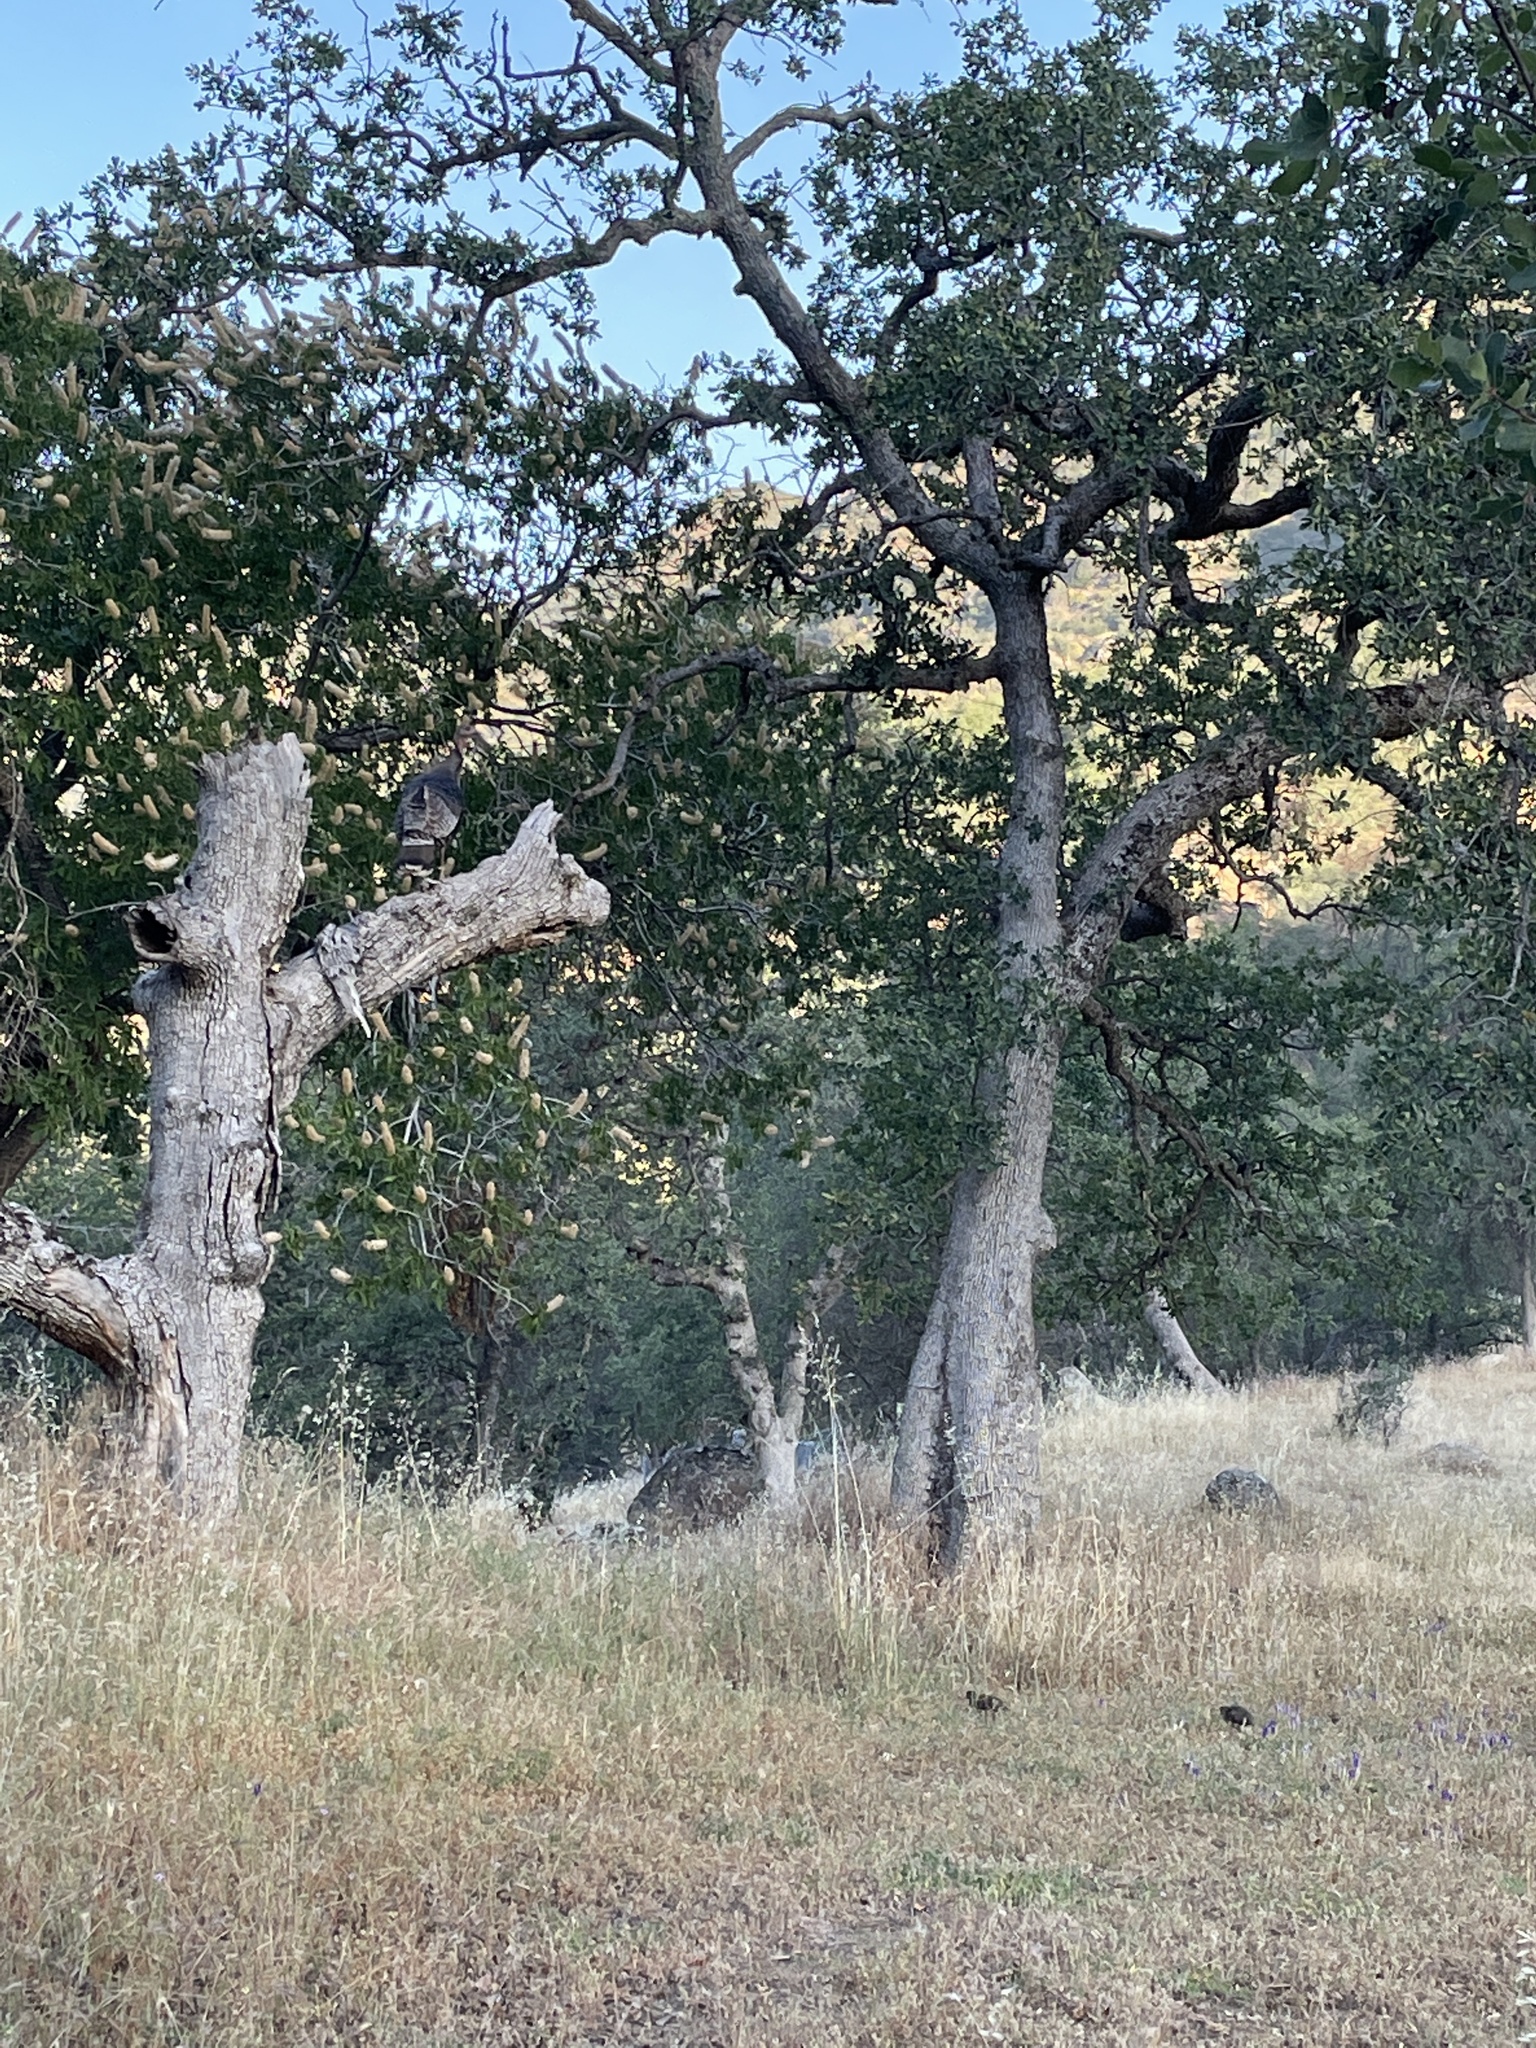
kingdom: Animalia
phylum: Chordata
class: Aves
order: Galliformes
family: Phasianidae
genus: Meleagris
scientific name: Meleagris gallopavo
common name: Wild turkey
